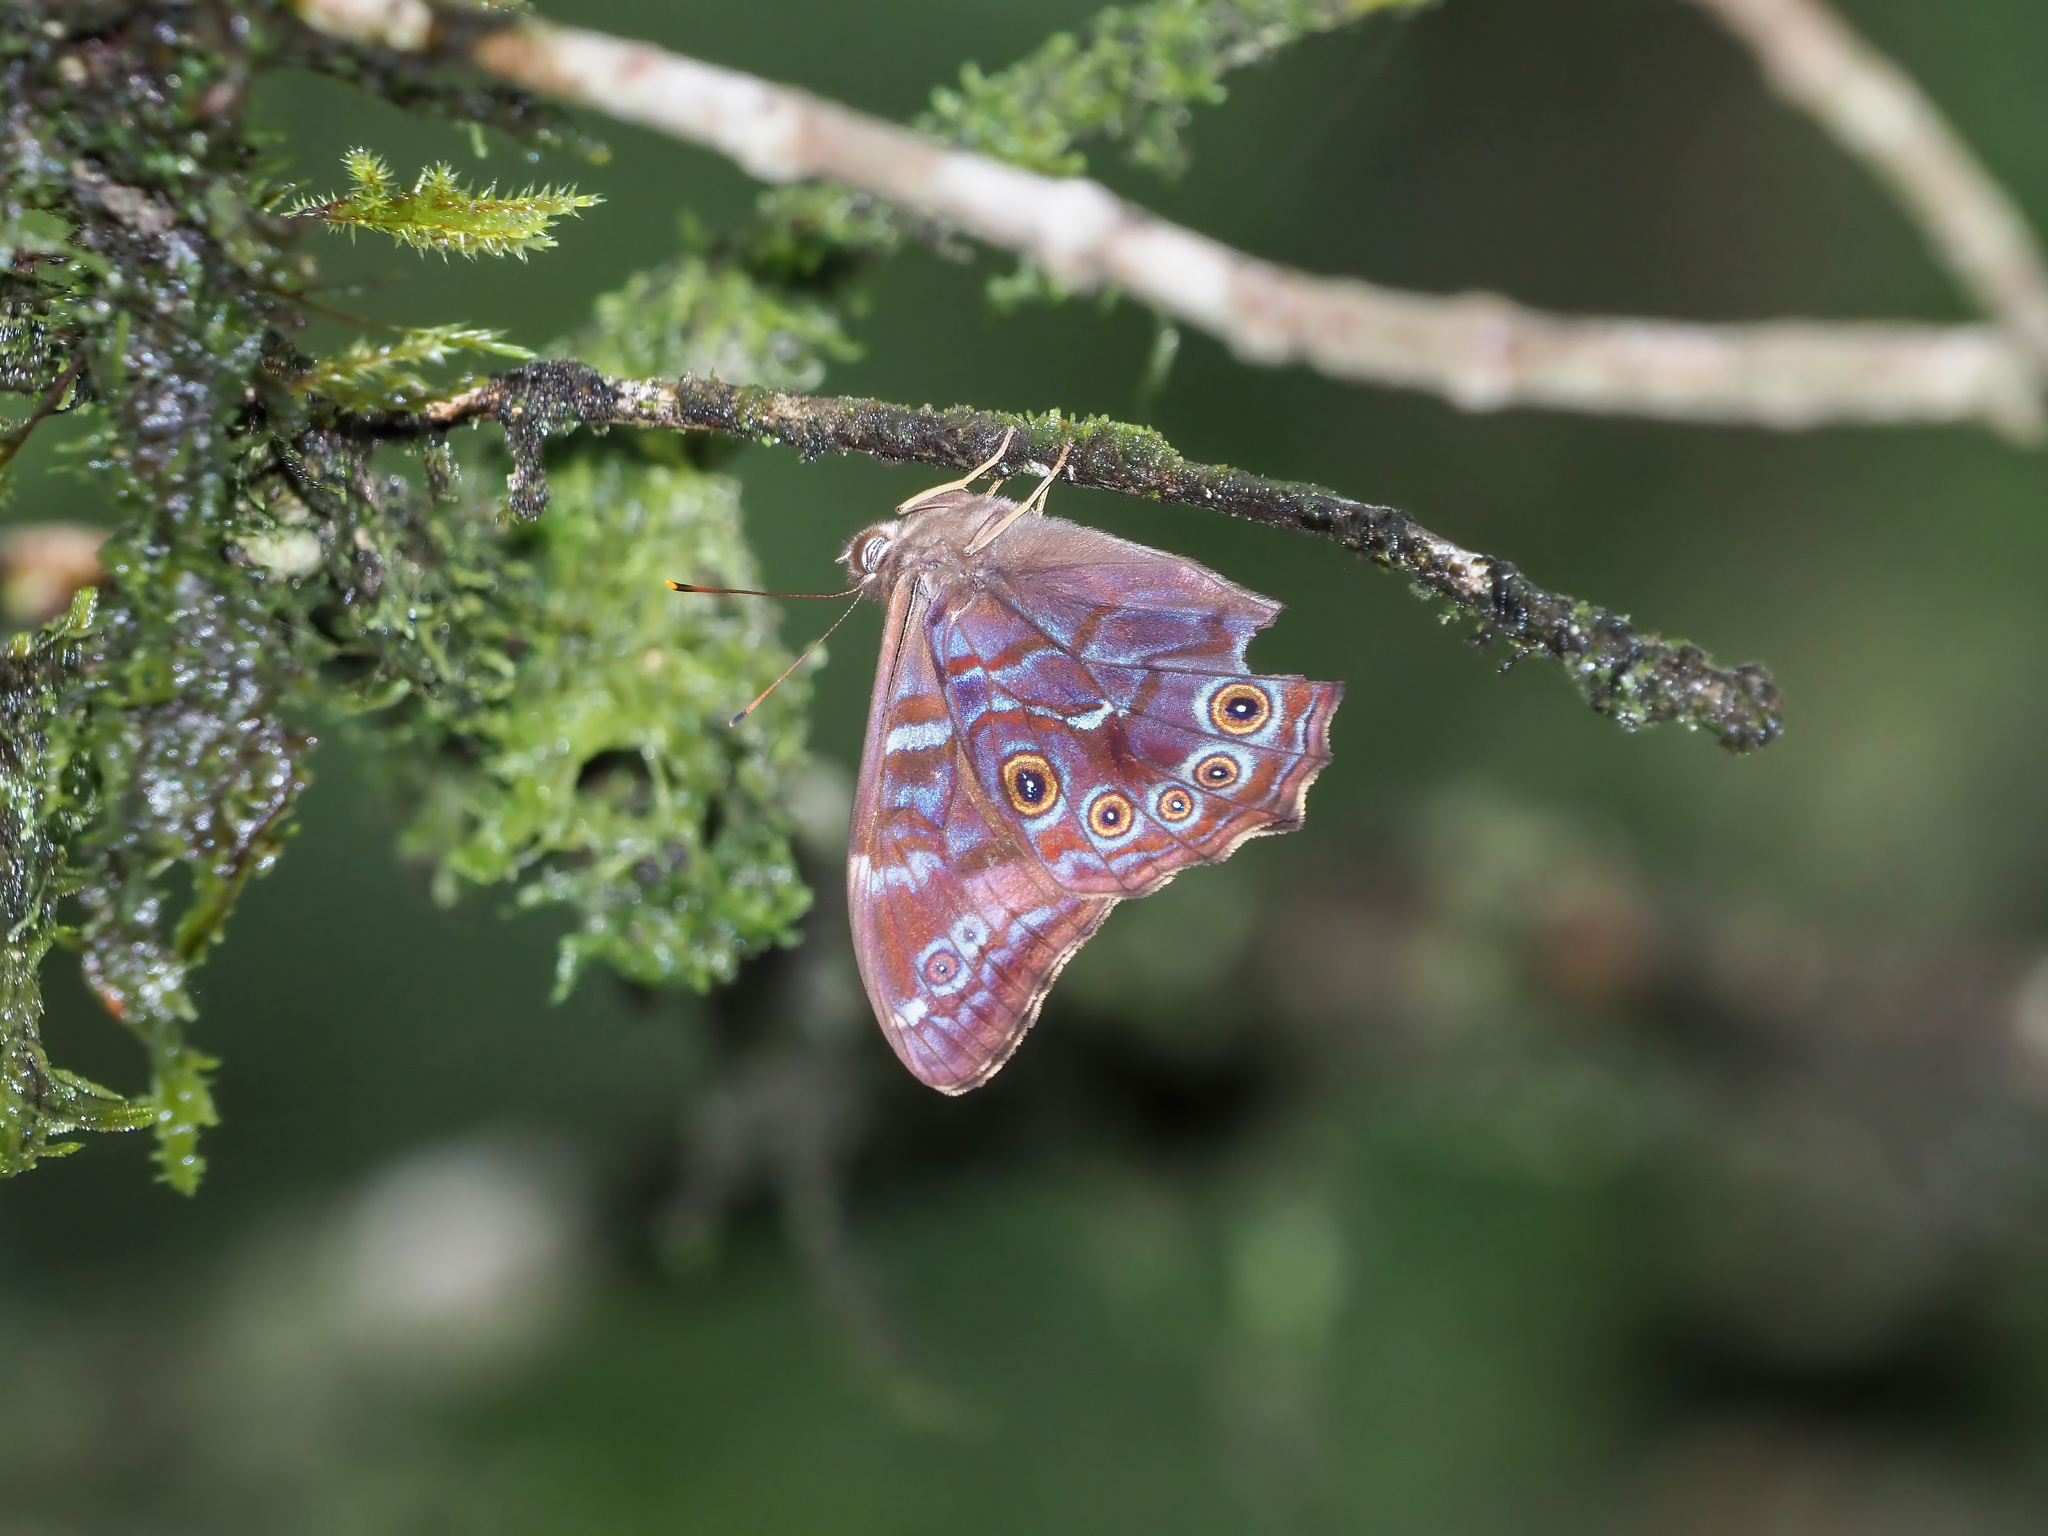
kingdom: Animalia
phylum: Arthropoda
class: Insecta
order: Lepidoptera
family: Nymphalidae
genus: Lethe
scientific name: Lethe perimede
